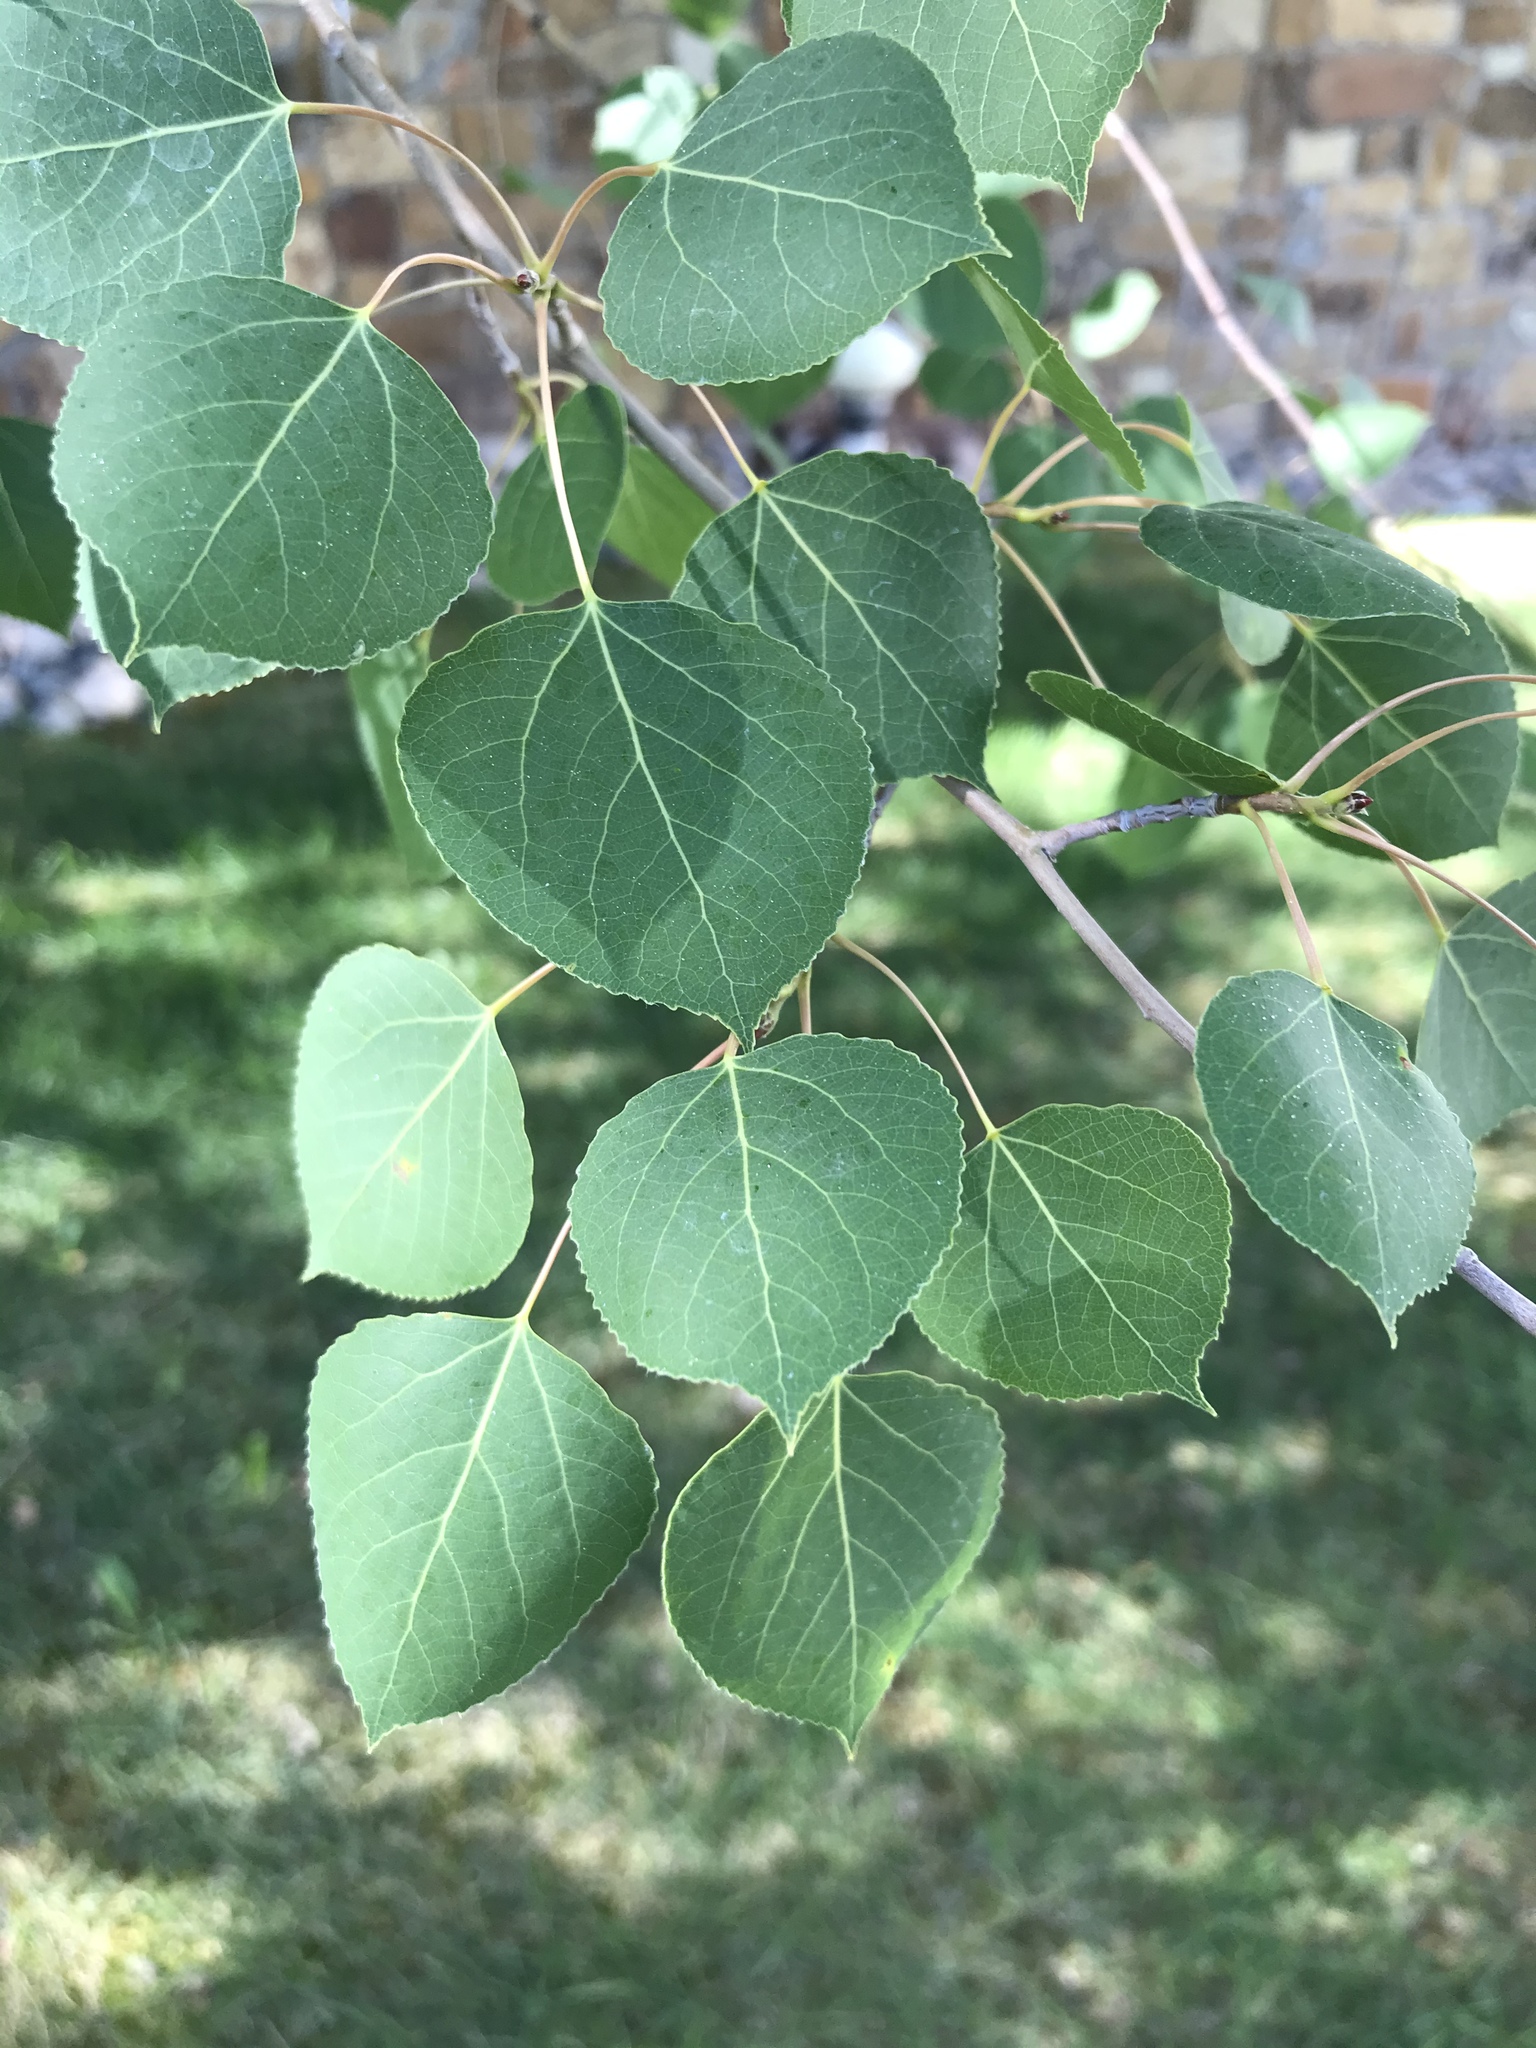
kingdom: Plantae
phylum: Tracheophyta
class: Magnoliopsida
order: Malpighiales
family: Salicaceae
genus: Populus
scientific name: Populus tremuloides
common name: Quaking aspen
